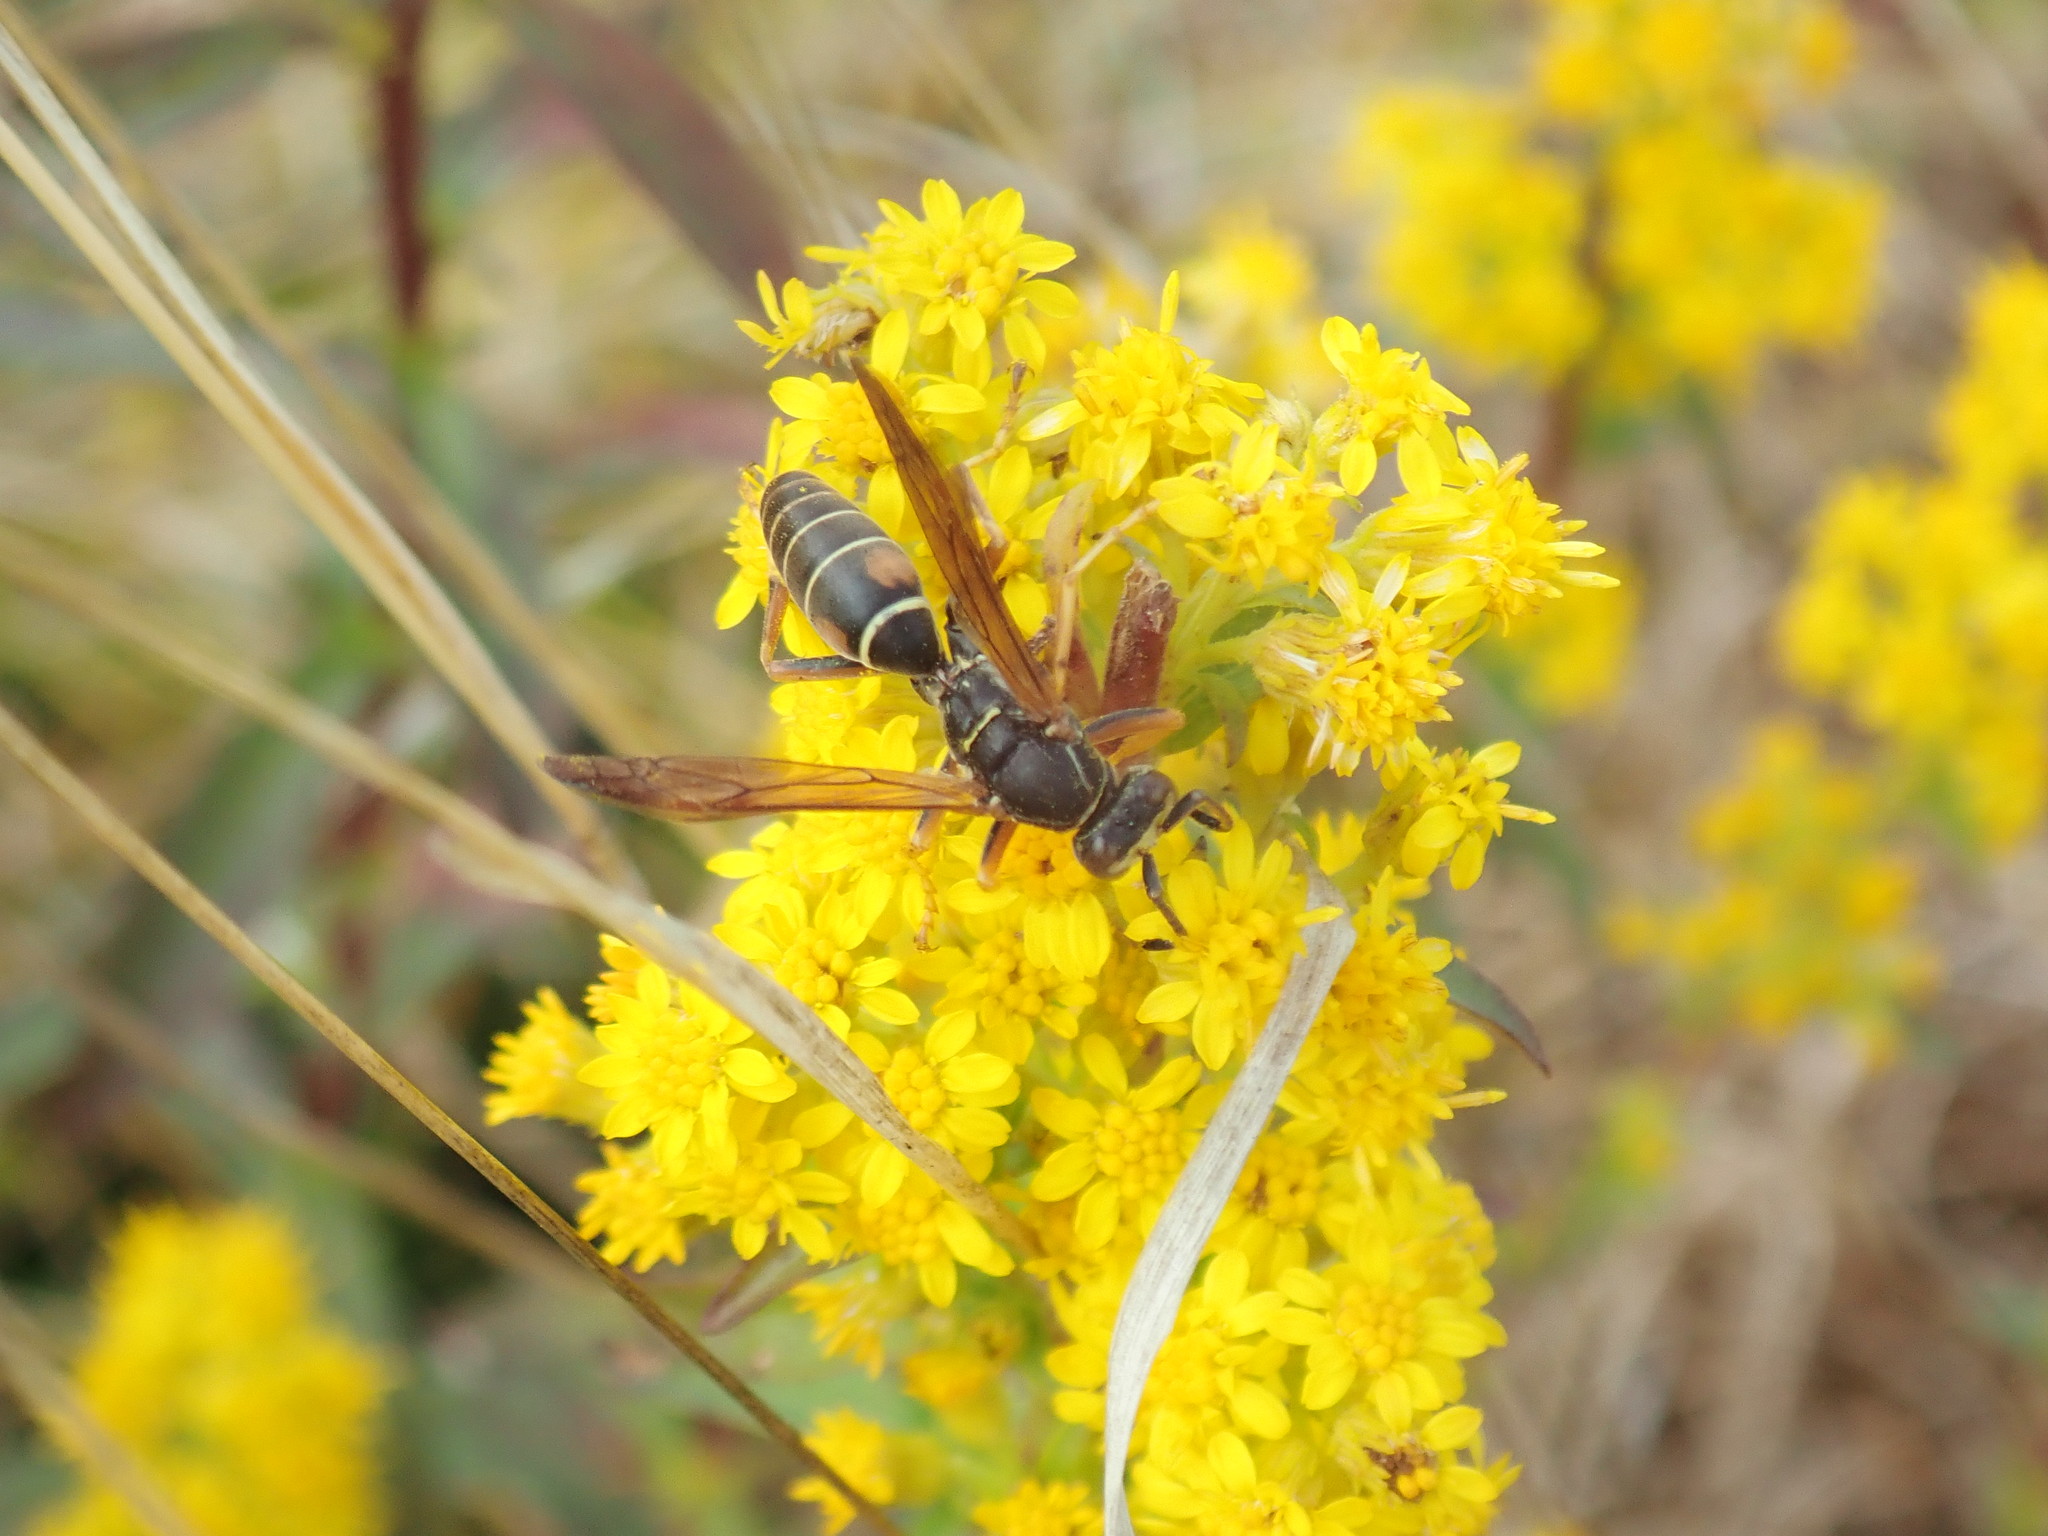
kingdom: Animalia
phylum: Arthropoda
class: Insecta
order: Hymenoptera
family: Eumenidae
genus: Polistes
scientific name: Polistes fuscatus
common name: Dark paper wasp
